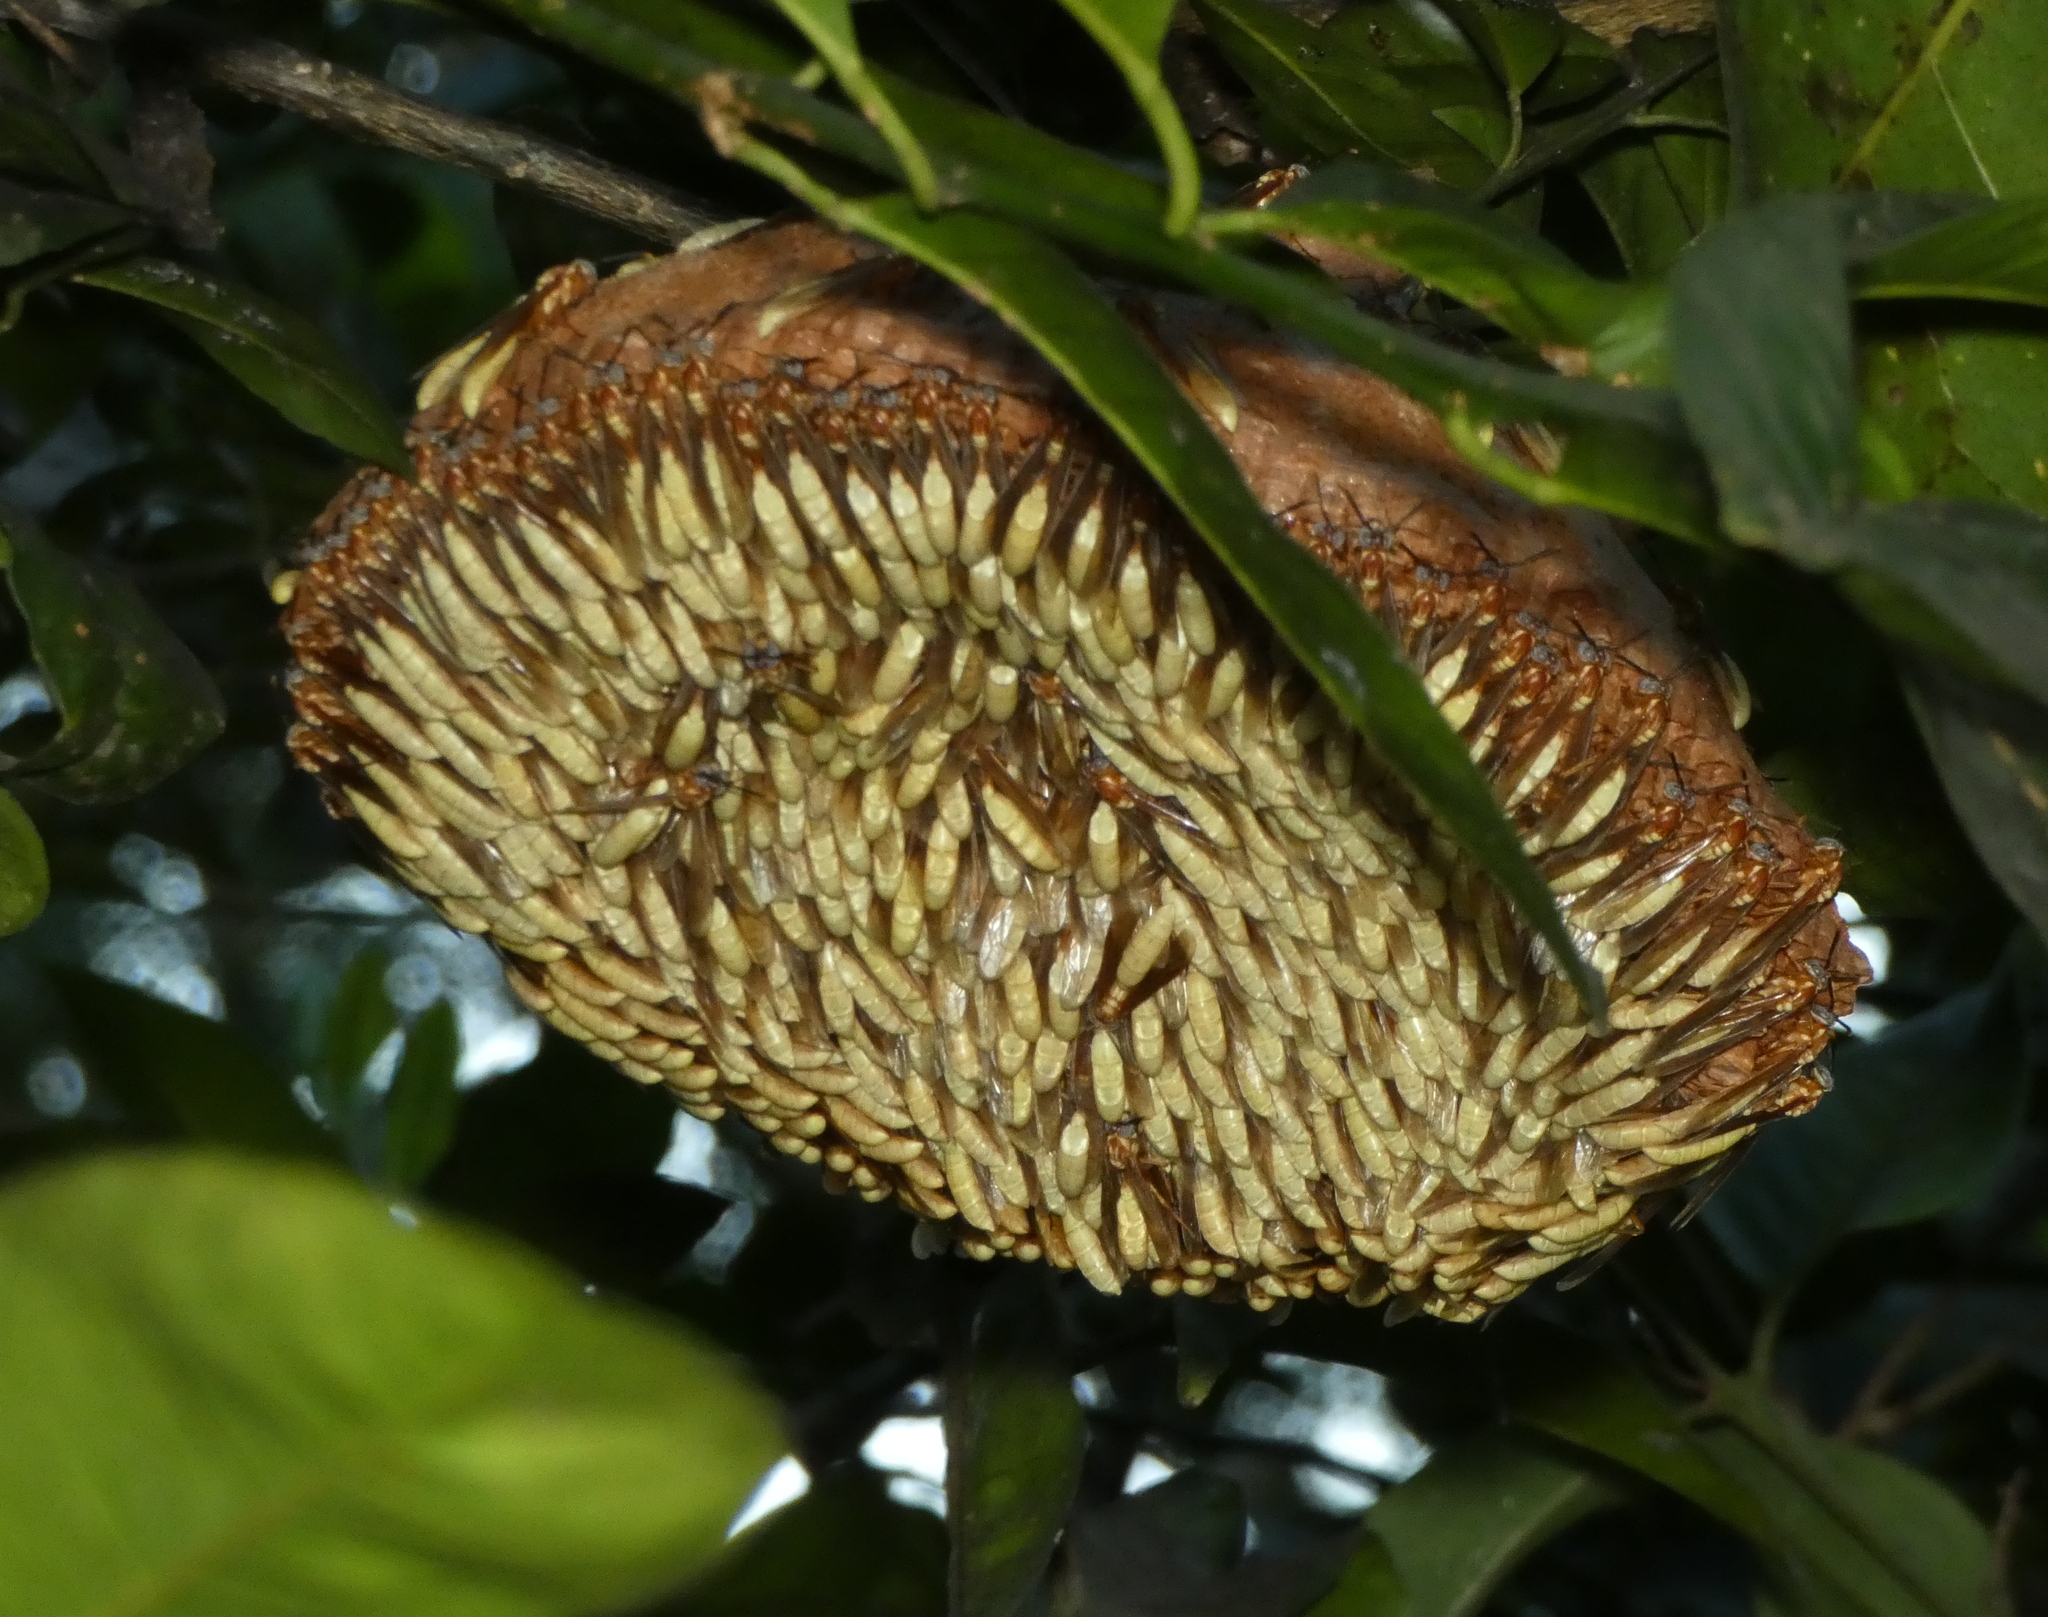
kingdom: Animalia
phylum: Arthropoda
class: Insecta
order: Hymenoptera
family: Vespidae
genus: Apoica
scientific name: Apoica flavissima
